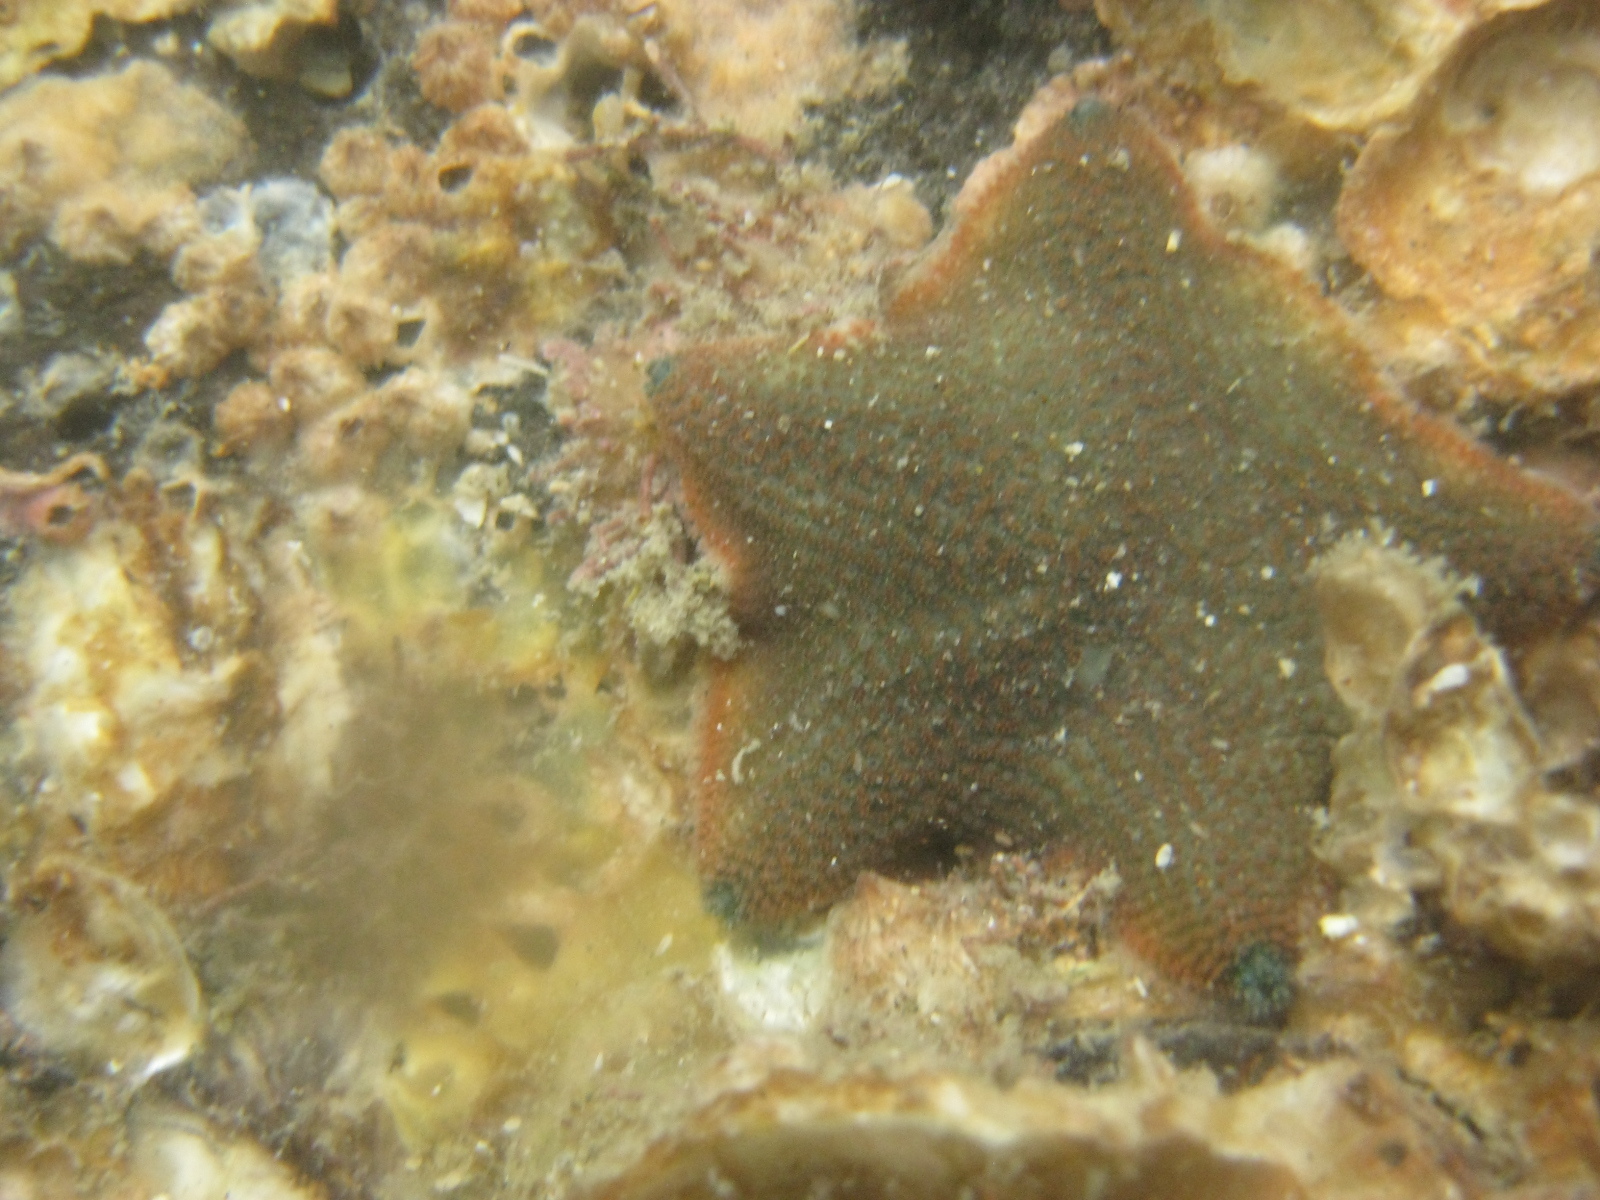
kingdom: Animalia
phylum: Echinodermata
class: Asteroidea
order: Valvatida
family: Asterinidae
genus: Patiriella
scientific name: Patiriella regularis
